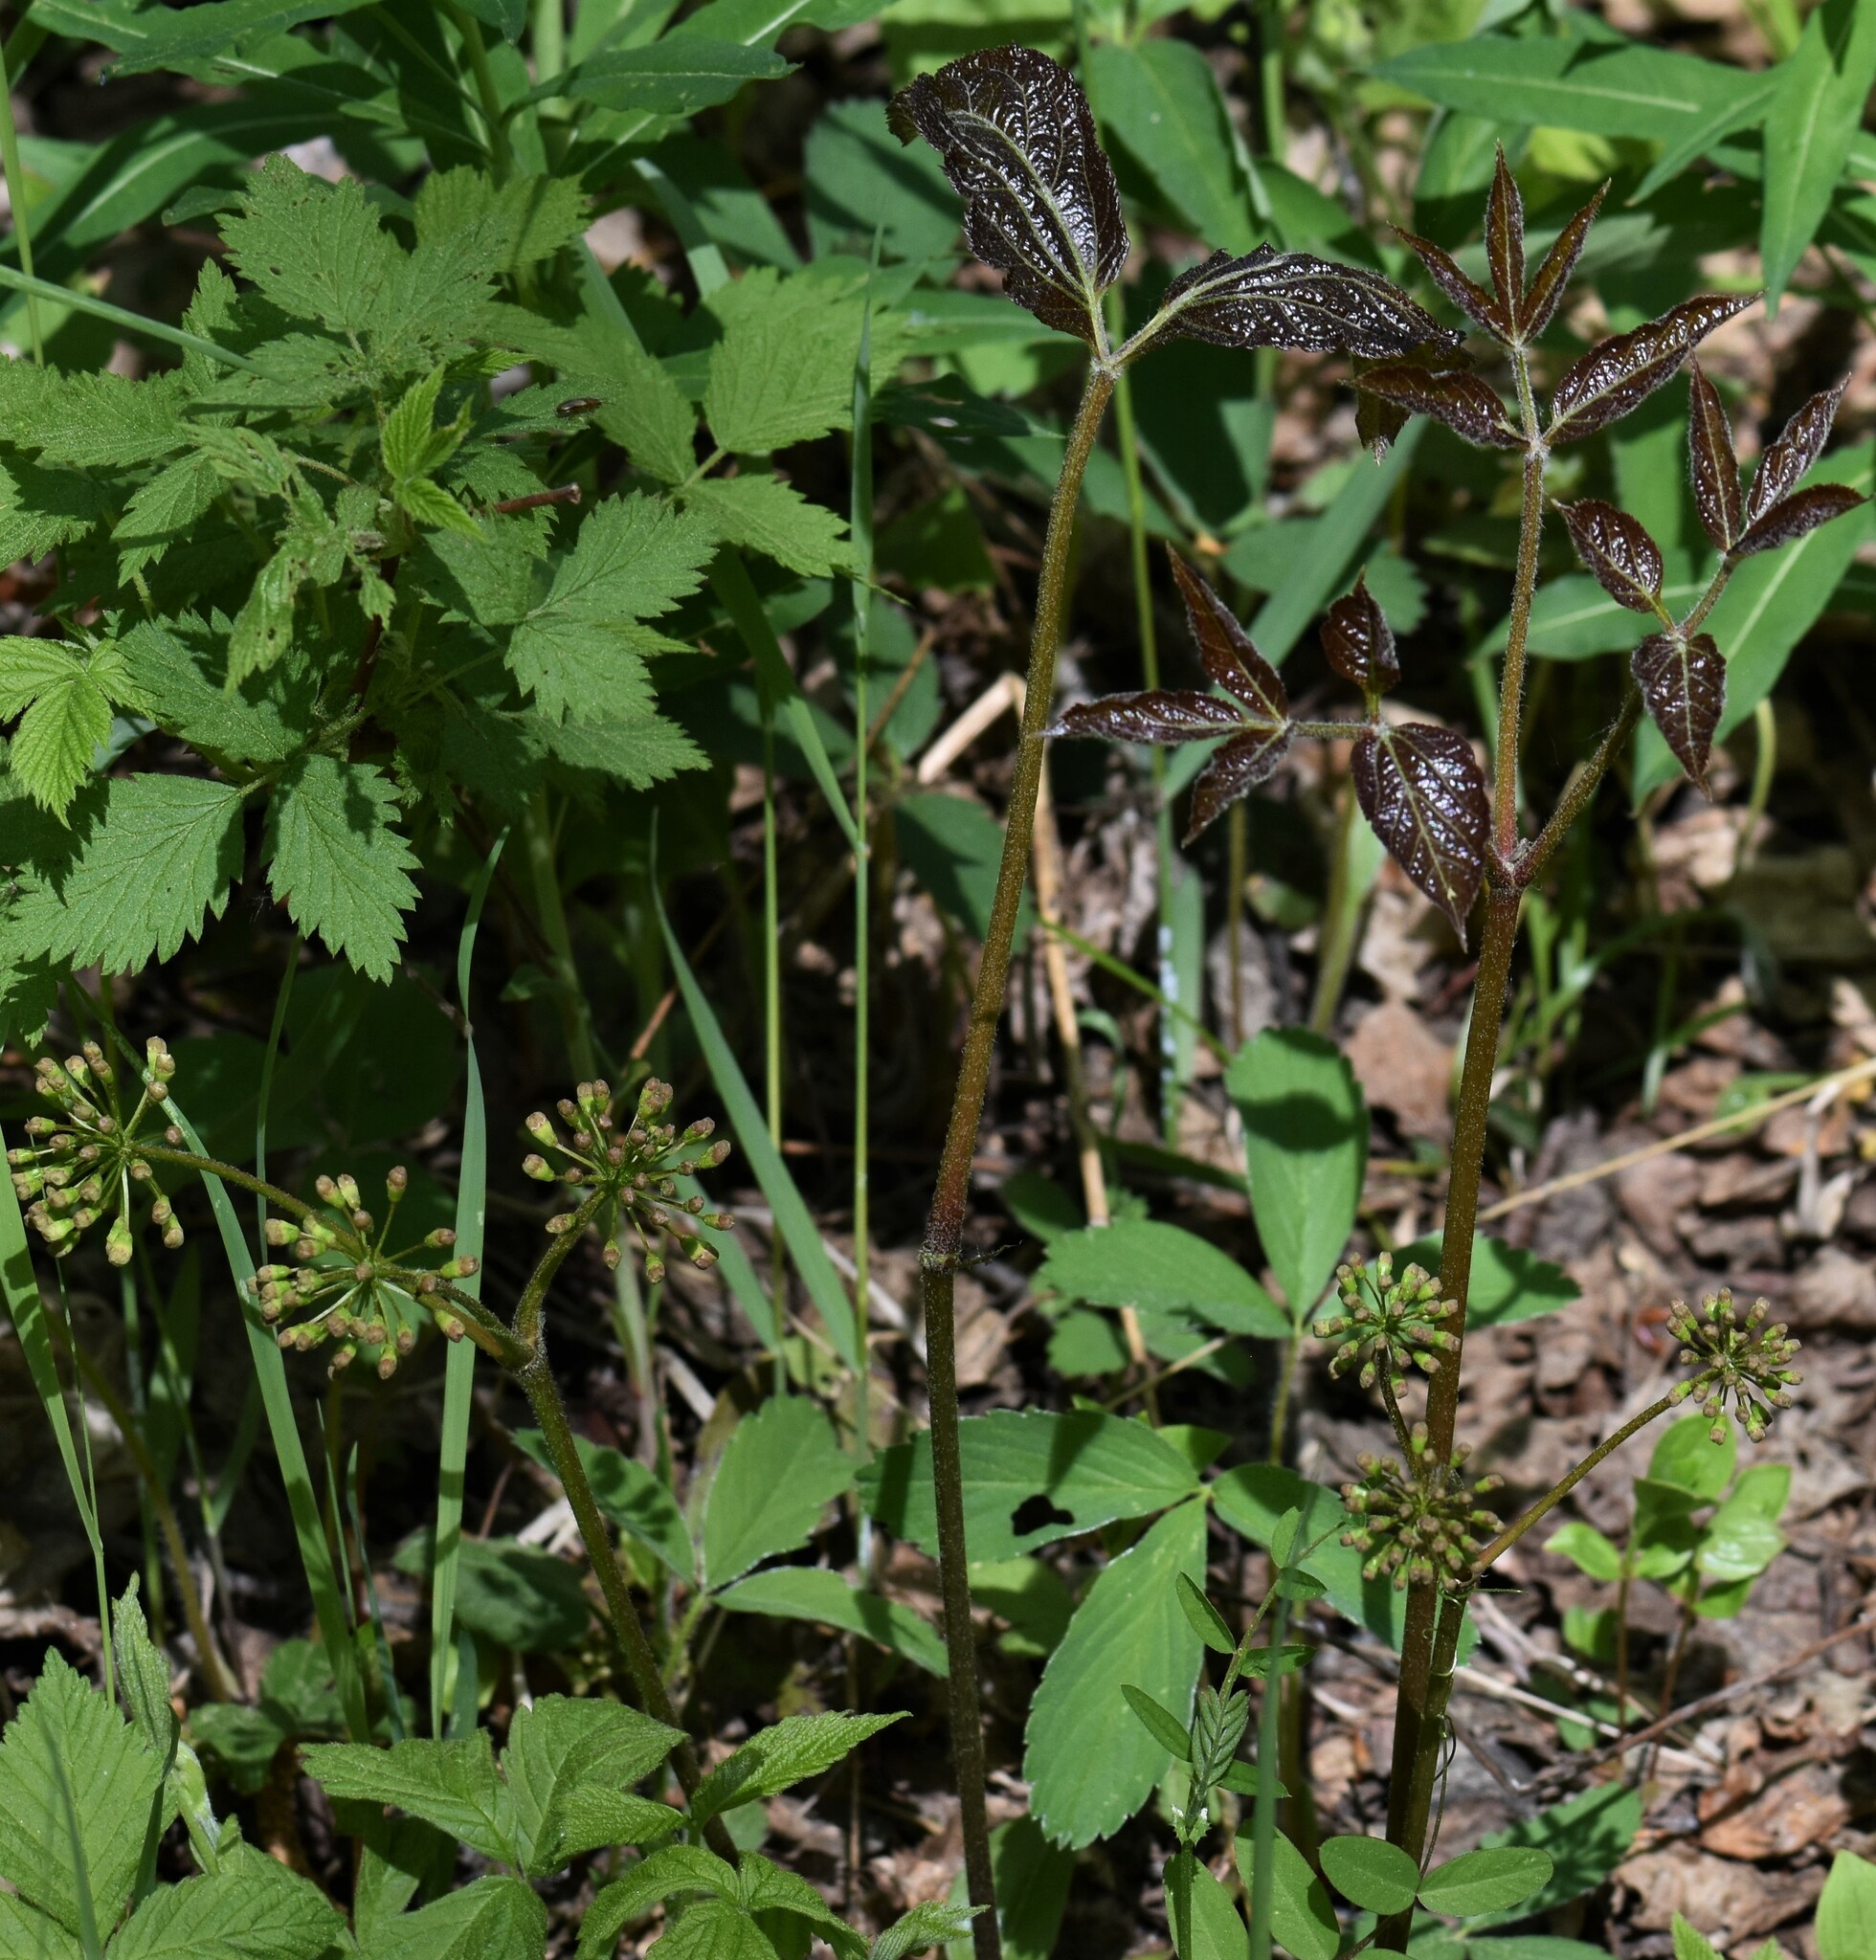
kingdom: Plantae
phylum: Tracheophyta
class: Magnoliopsida
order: Apiales
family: Araliaceae
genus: Aralia
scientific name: Aralia nudicaulis
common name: Wild sarsaparilla
